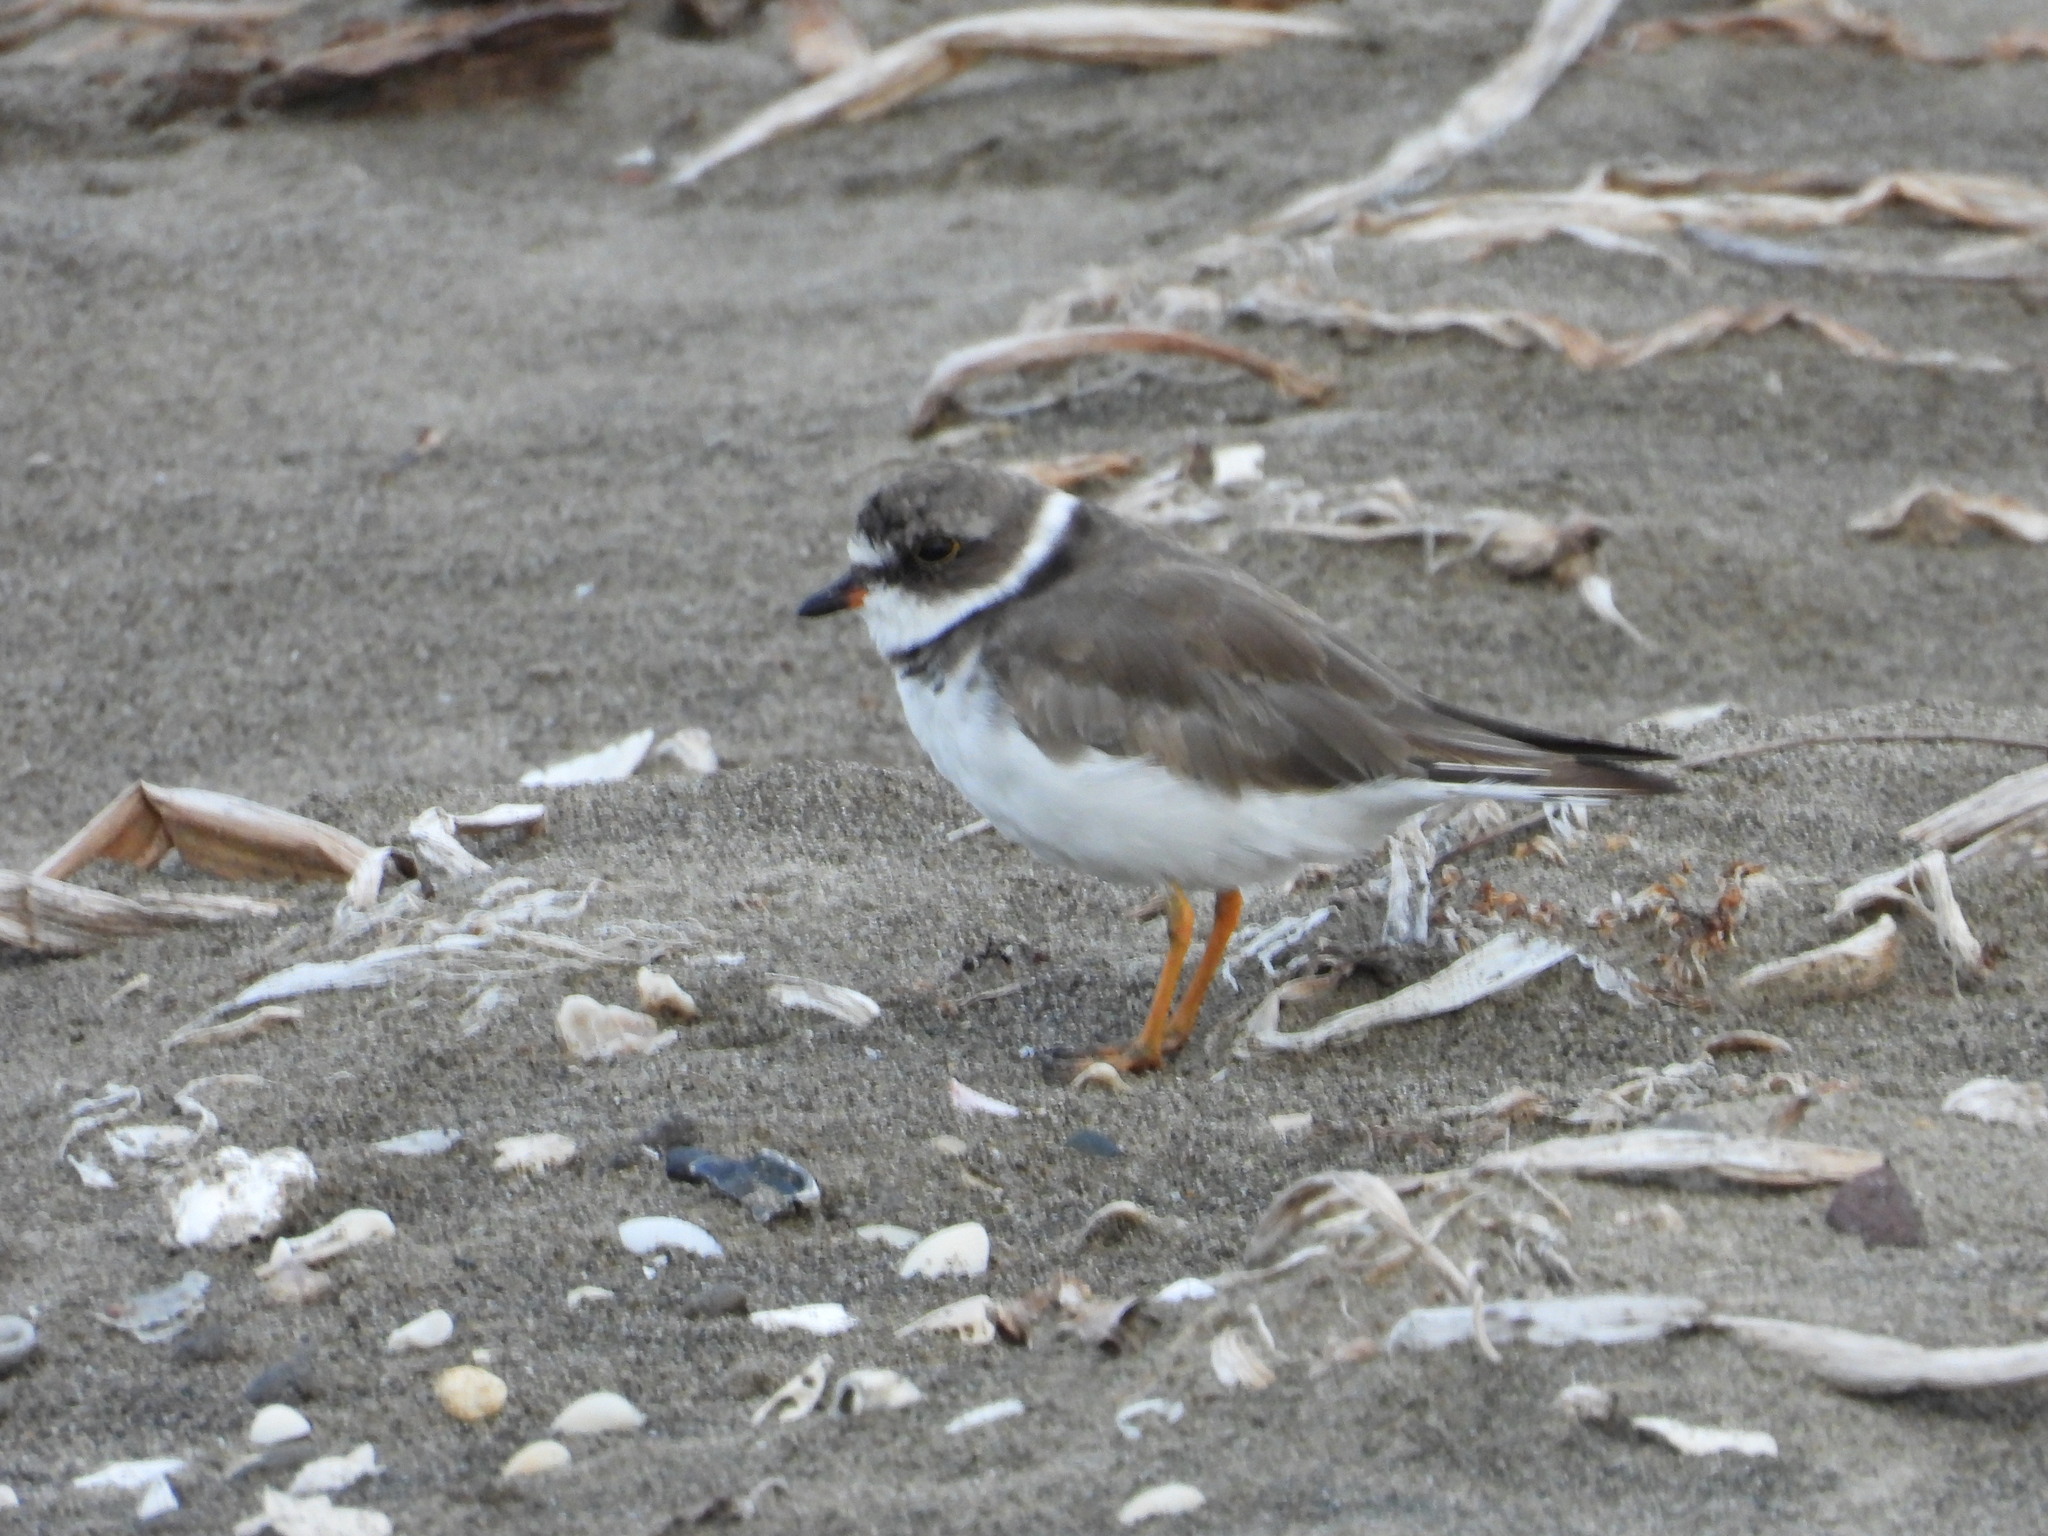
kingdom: Animalia
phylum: Chordata
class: Aves
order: Charadriiformes
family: Charadriidae
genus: Charadrius
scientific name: Charadrius semipalmatus
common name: Semipalmated plover
